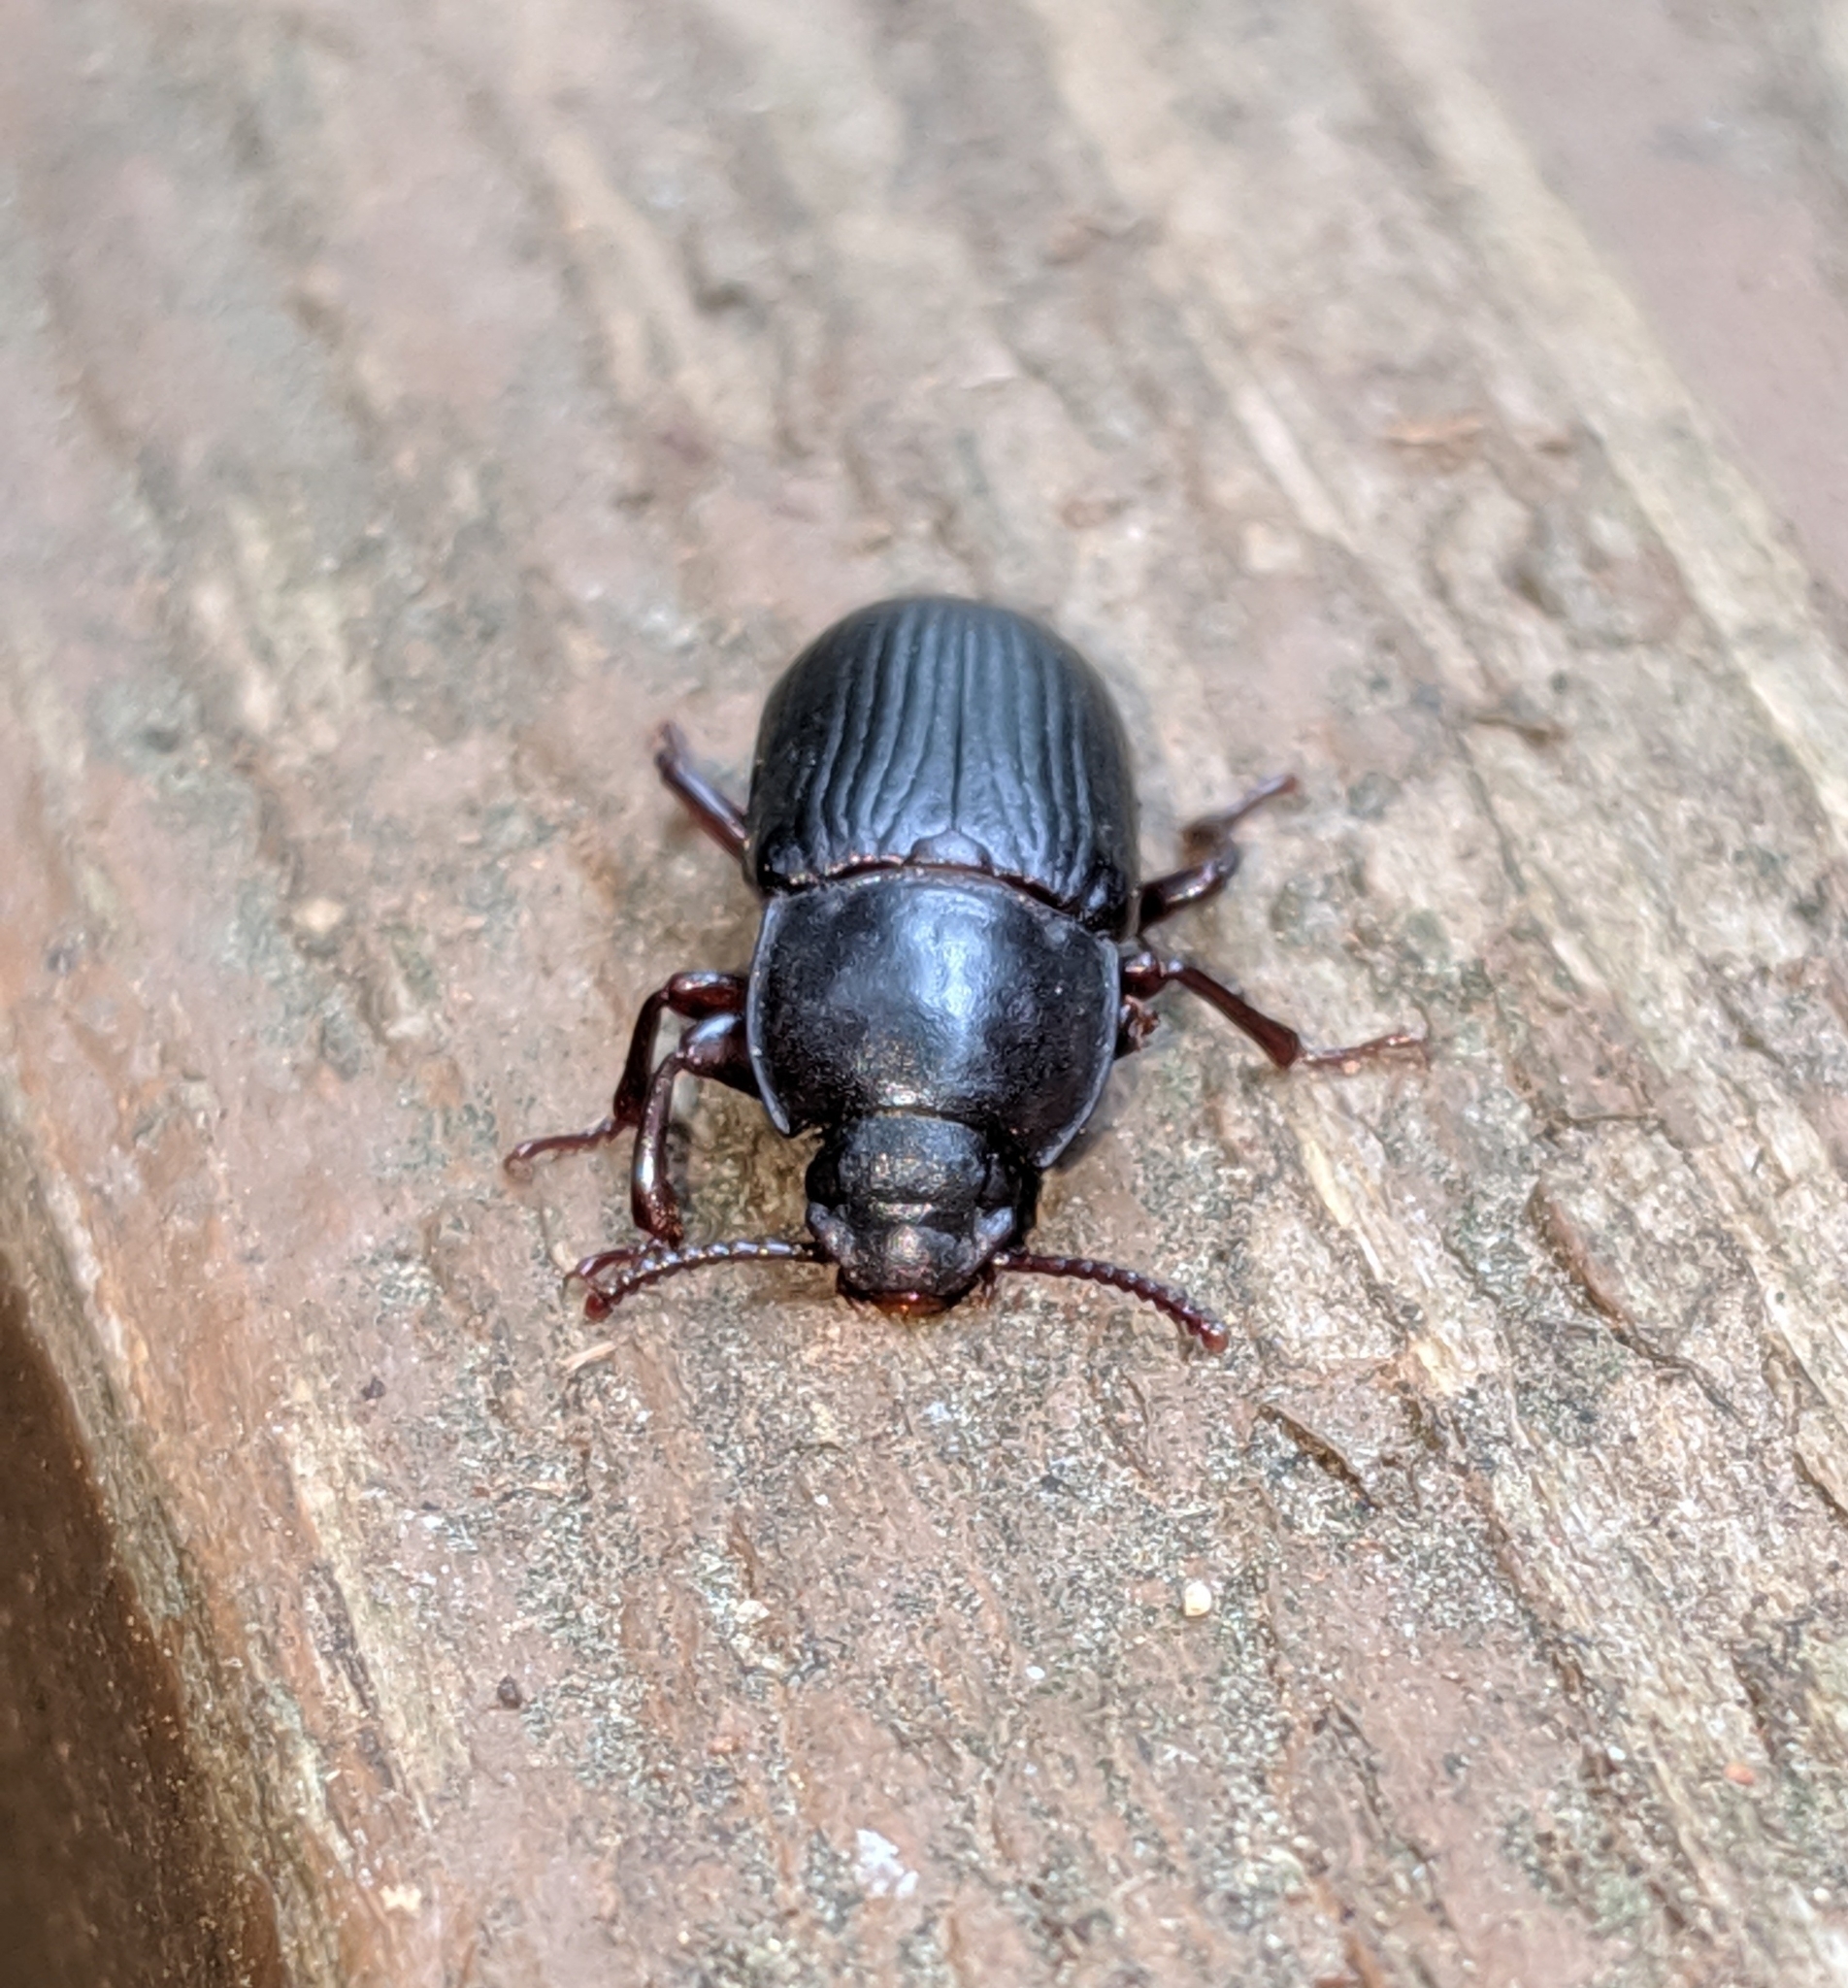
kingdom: Animalia
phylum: Arthropoda
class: Insecta
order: Coleoptera
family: Tenebrionidae
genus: Tenebrio
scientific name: Tenebrio molitor
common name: Hardback beetle
